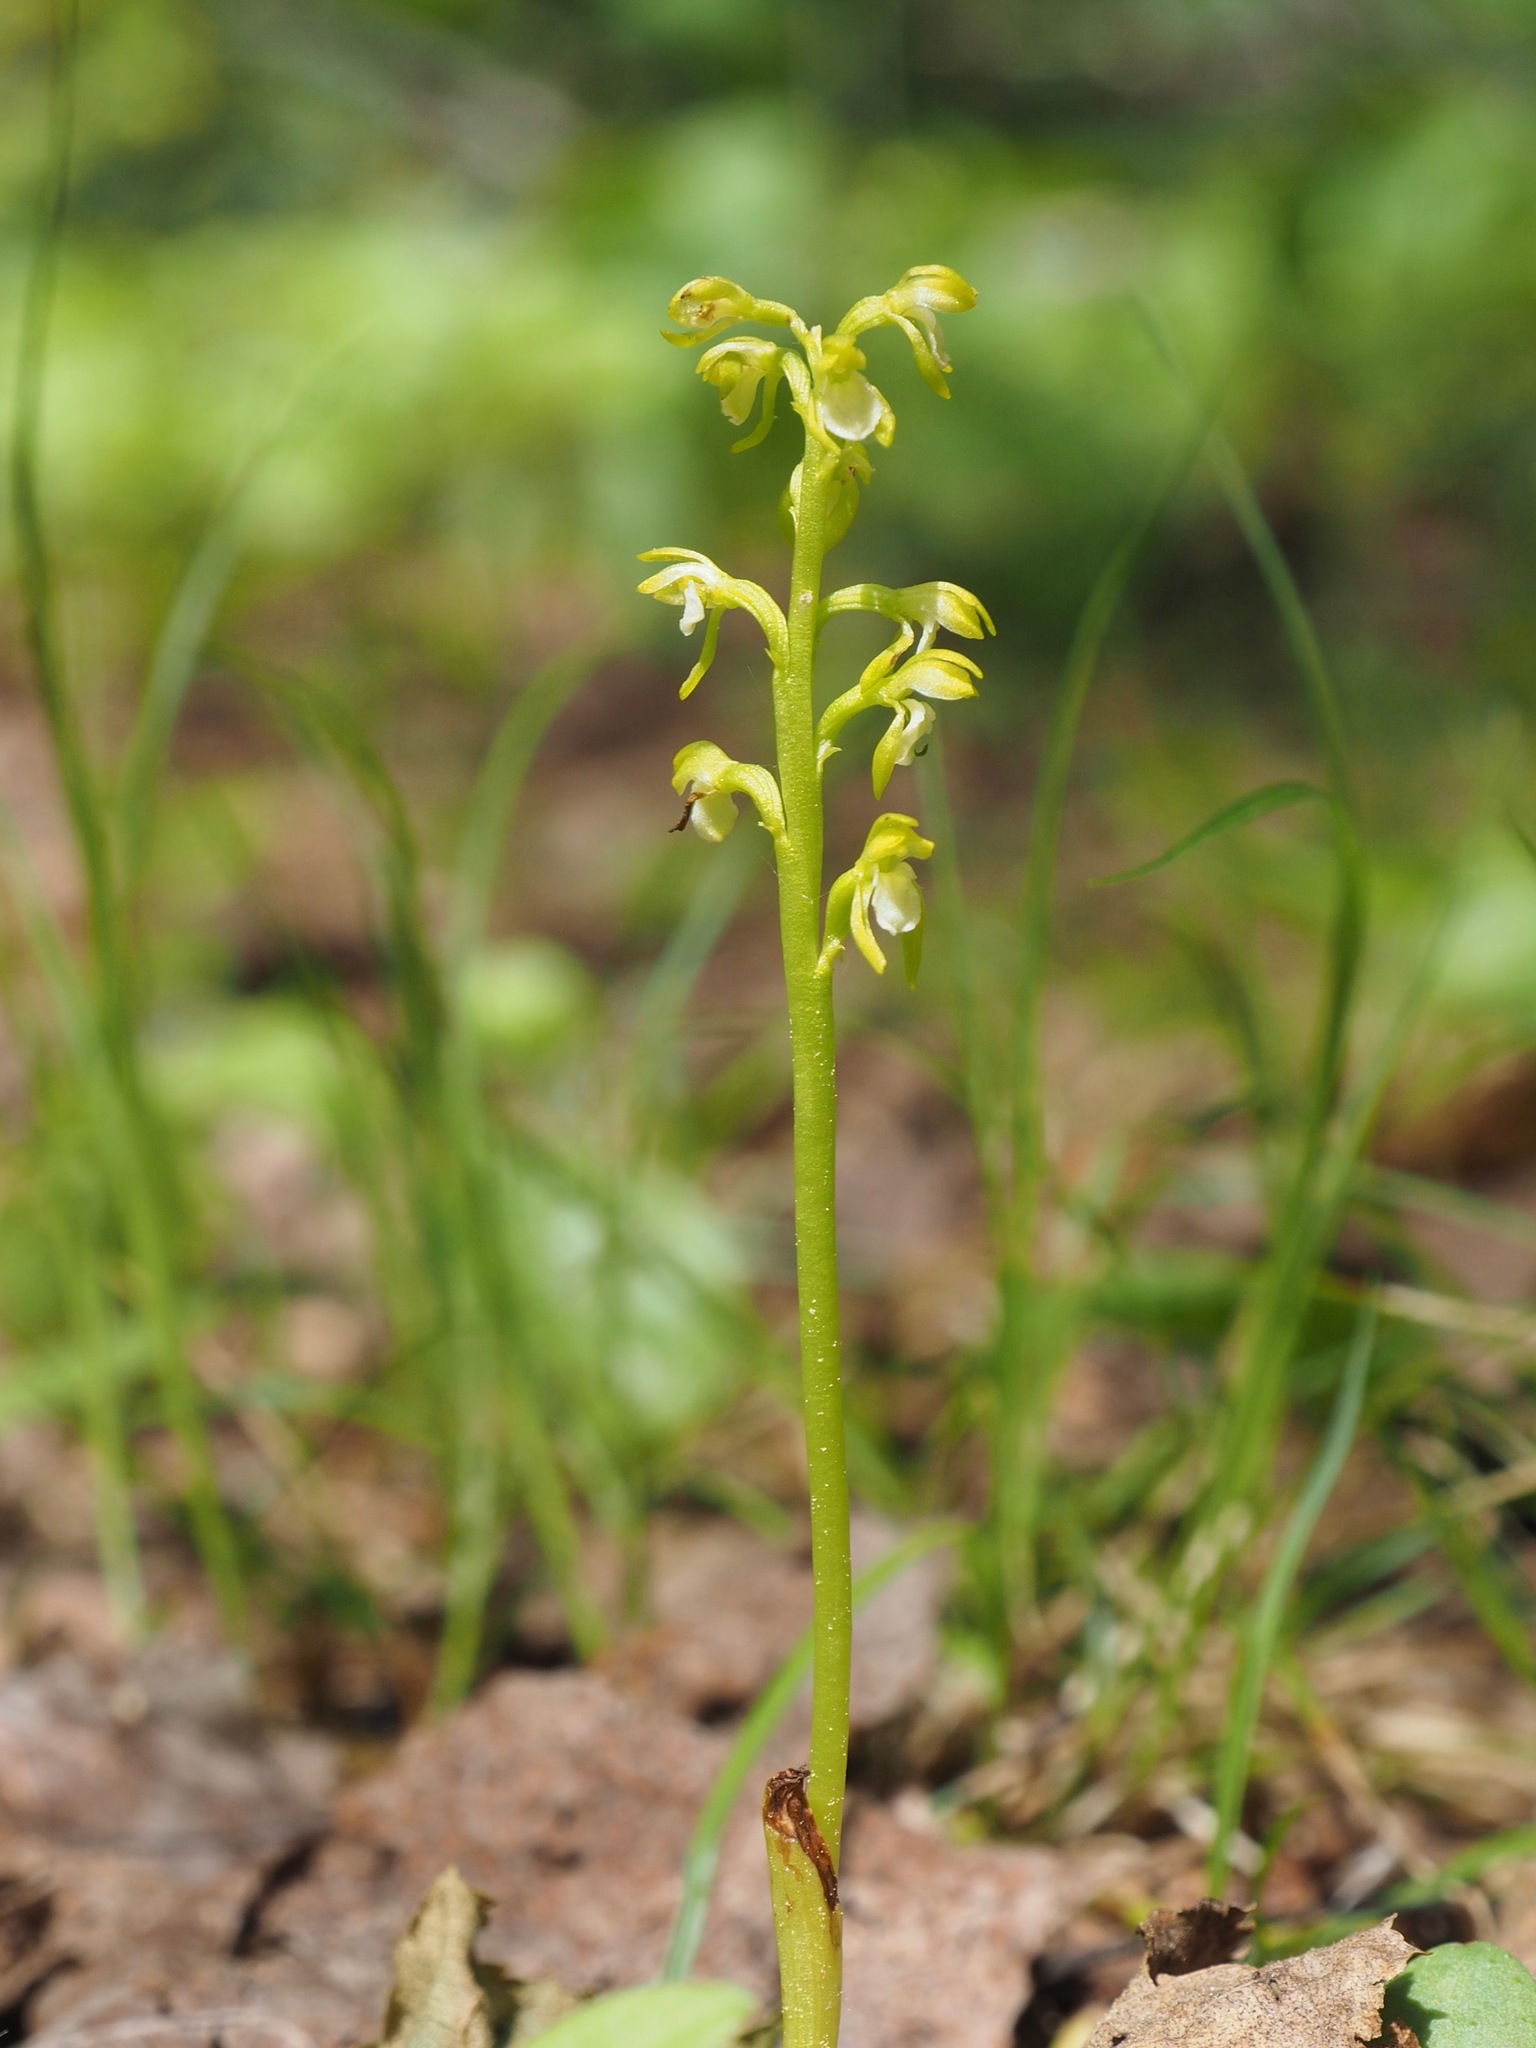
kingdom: Plantae
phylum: Tracheophyta
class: Liliopsida
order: Asparagales
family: Orchidaceae
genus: Corallorhiza
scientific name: Corallorhiza trifida
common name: Yellow coralroot
